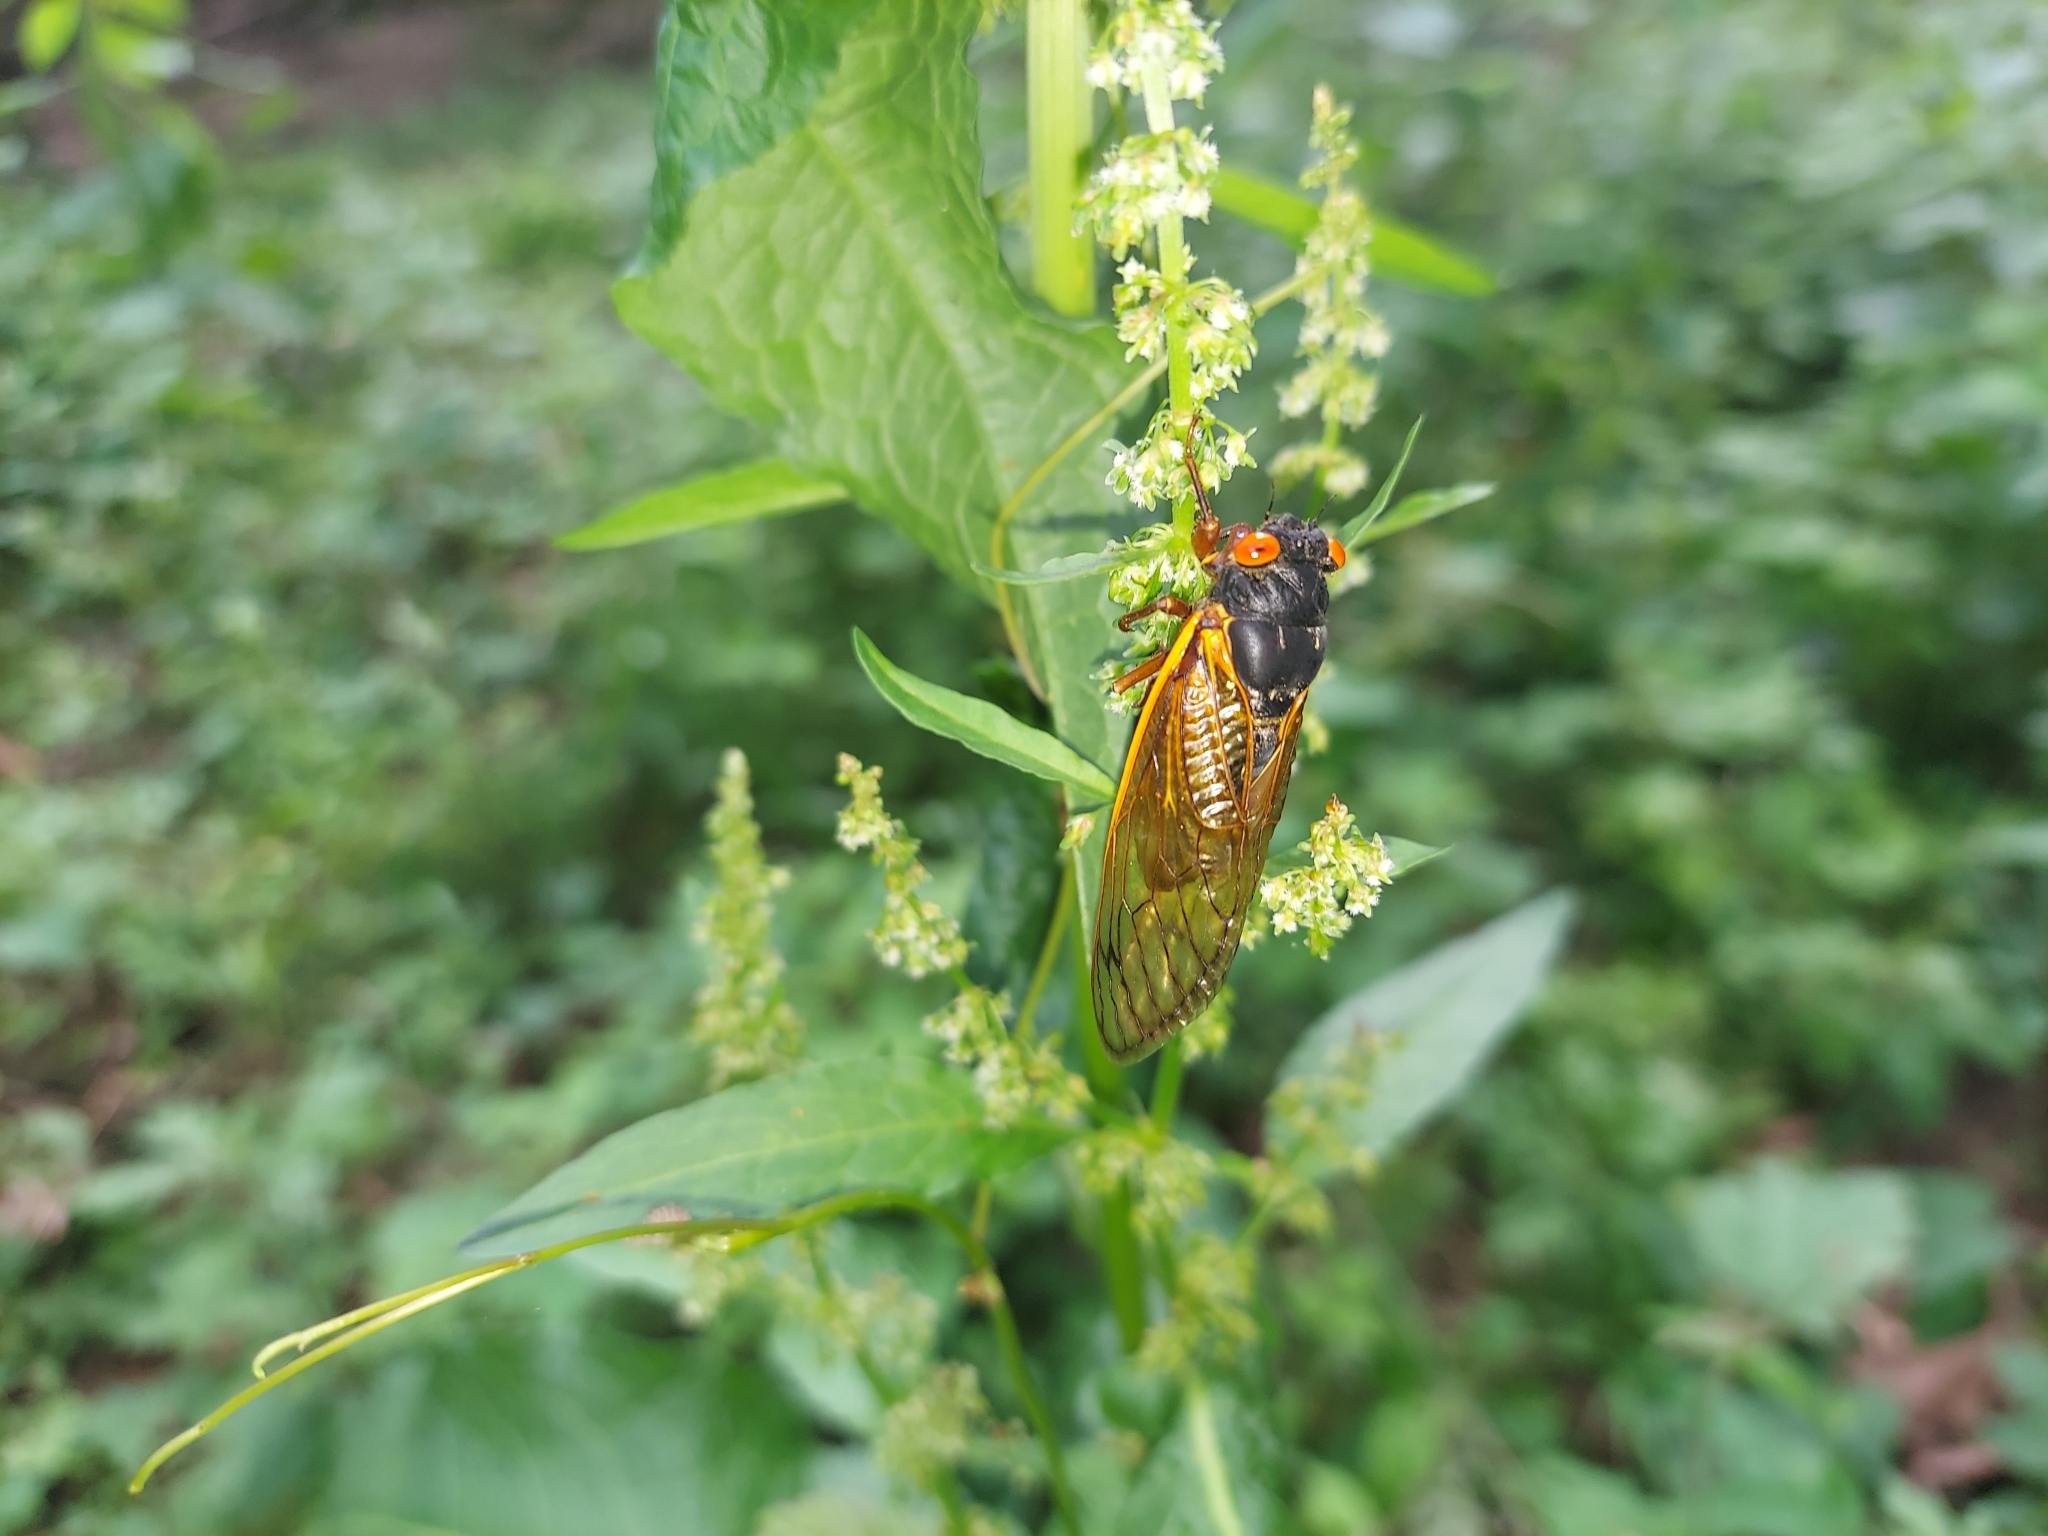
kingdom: Animalia
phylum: Arthropoda
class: Insecta
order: Hemiptera
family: Cicadidae
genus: Magicicada
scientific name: Magicicada septendecula
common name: Decula periodical cicada
